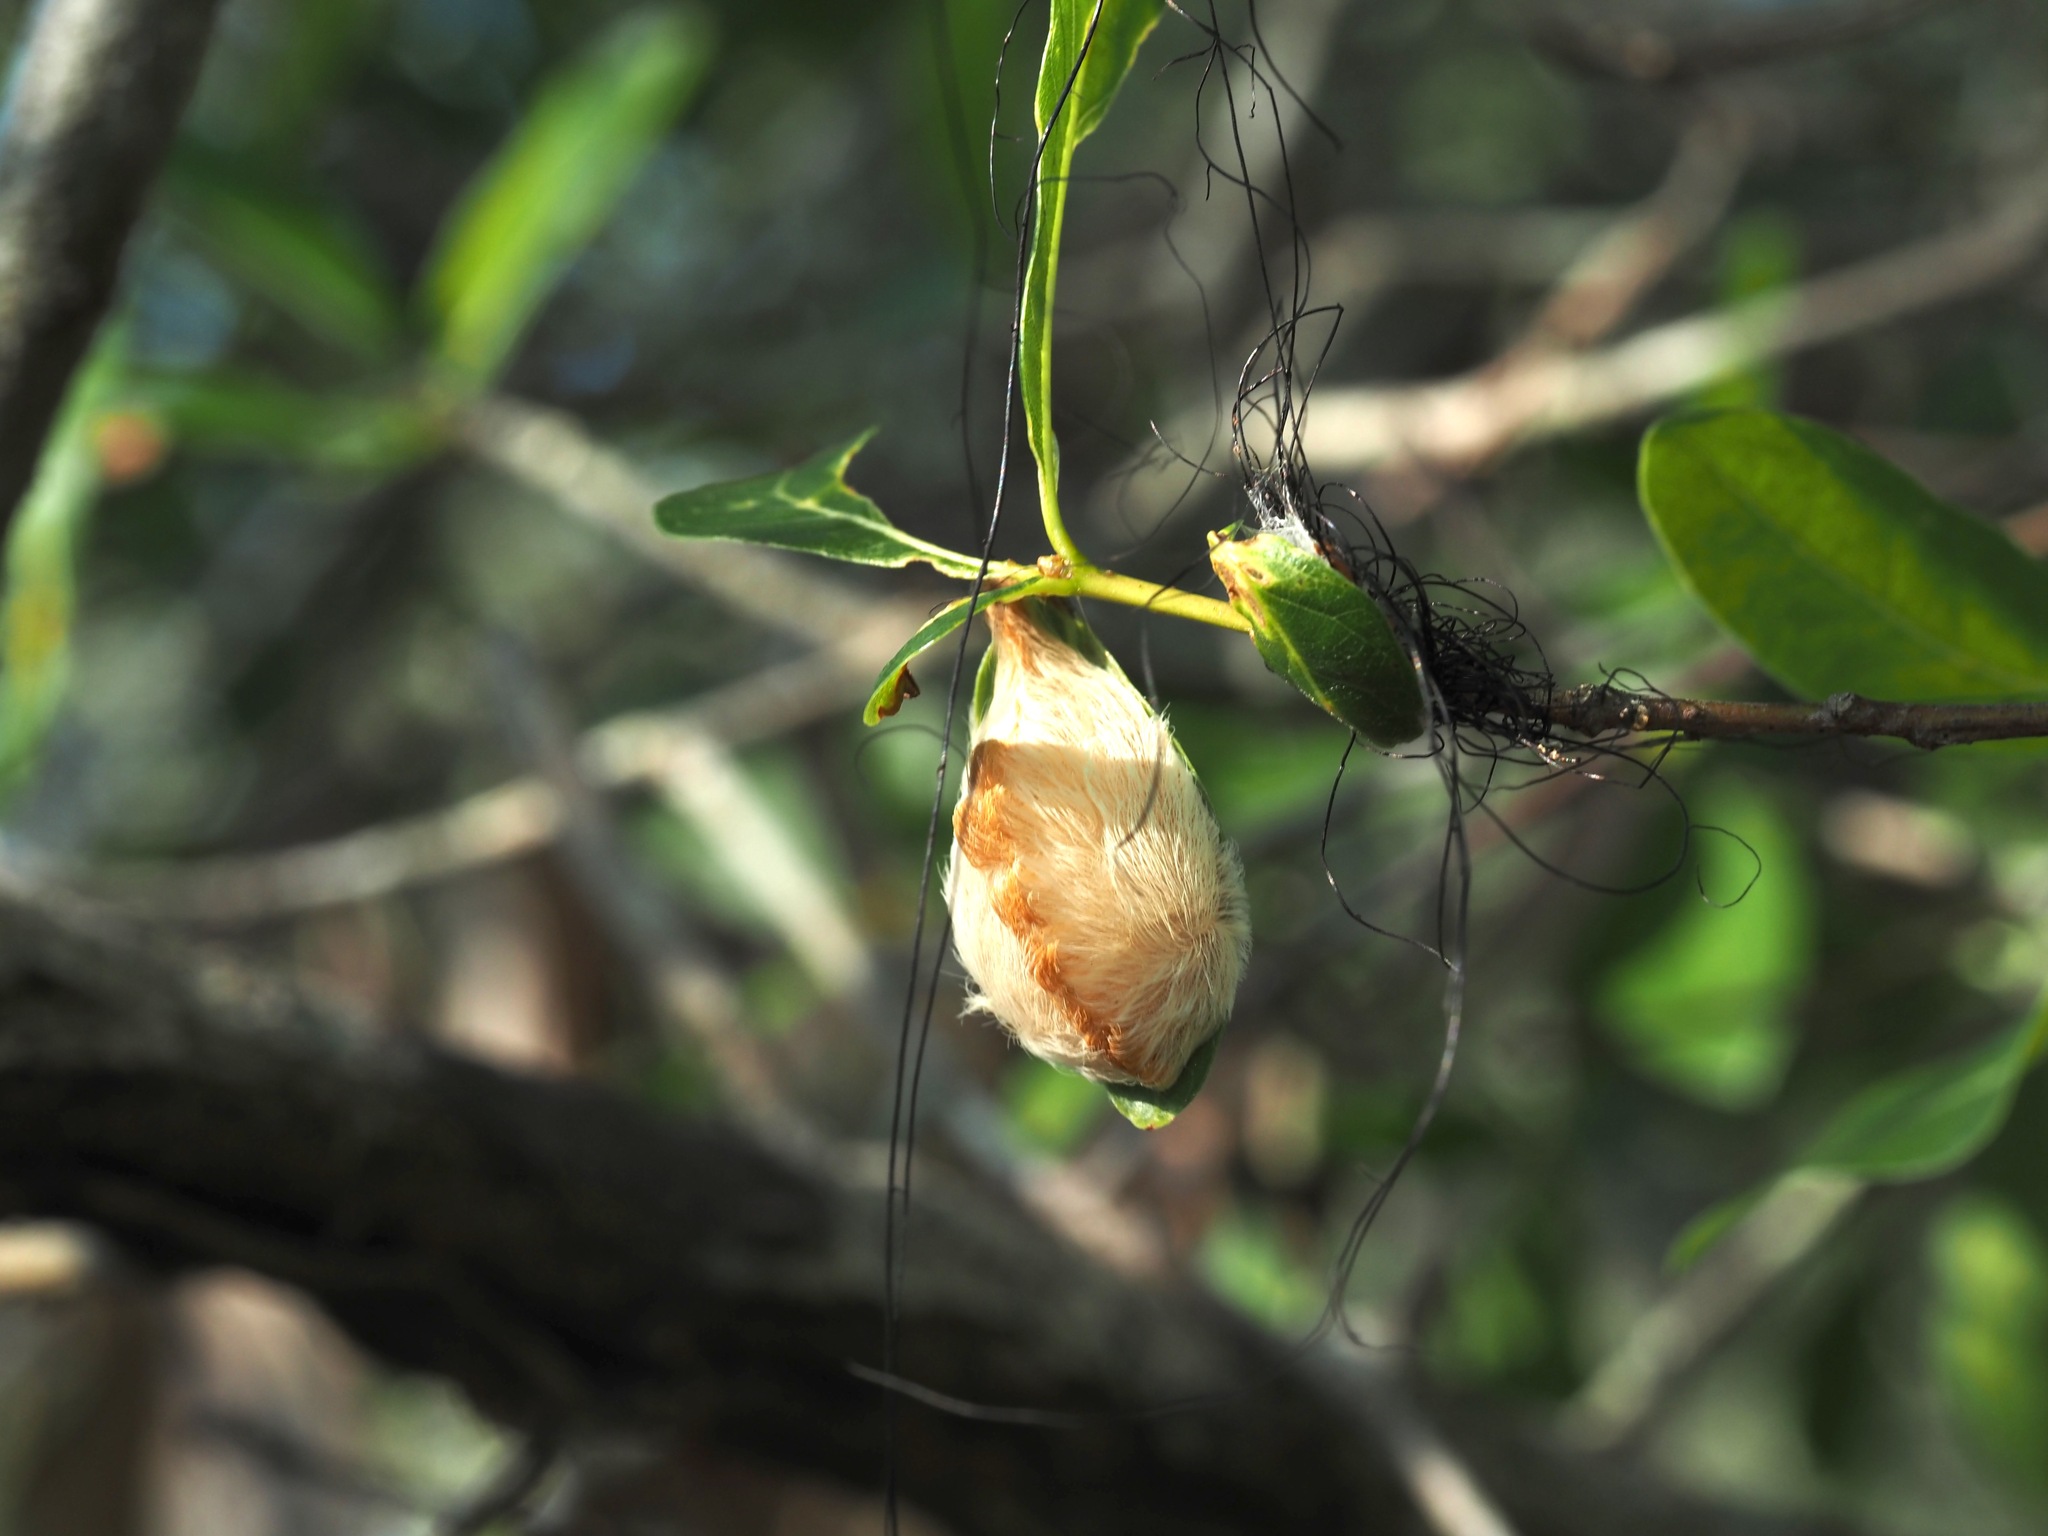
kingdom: Animalia
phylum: Arthropoda
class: Insecta
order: Lepidoptera
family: Megalopygidae
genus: Megalopyge
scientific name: Megalopyge opercularis
